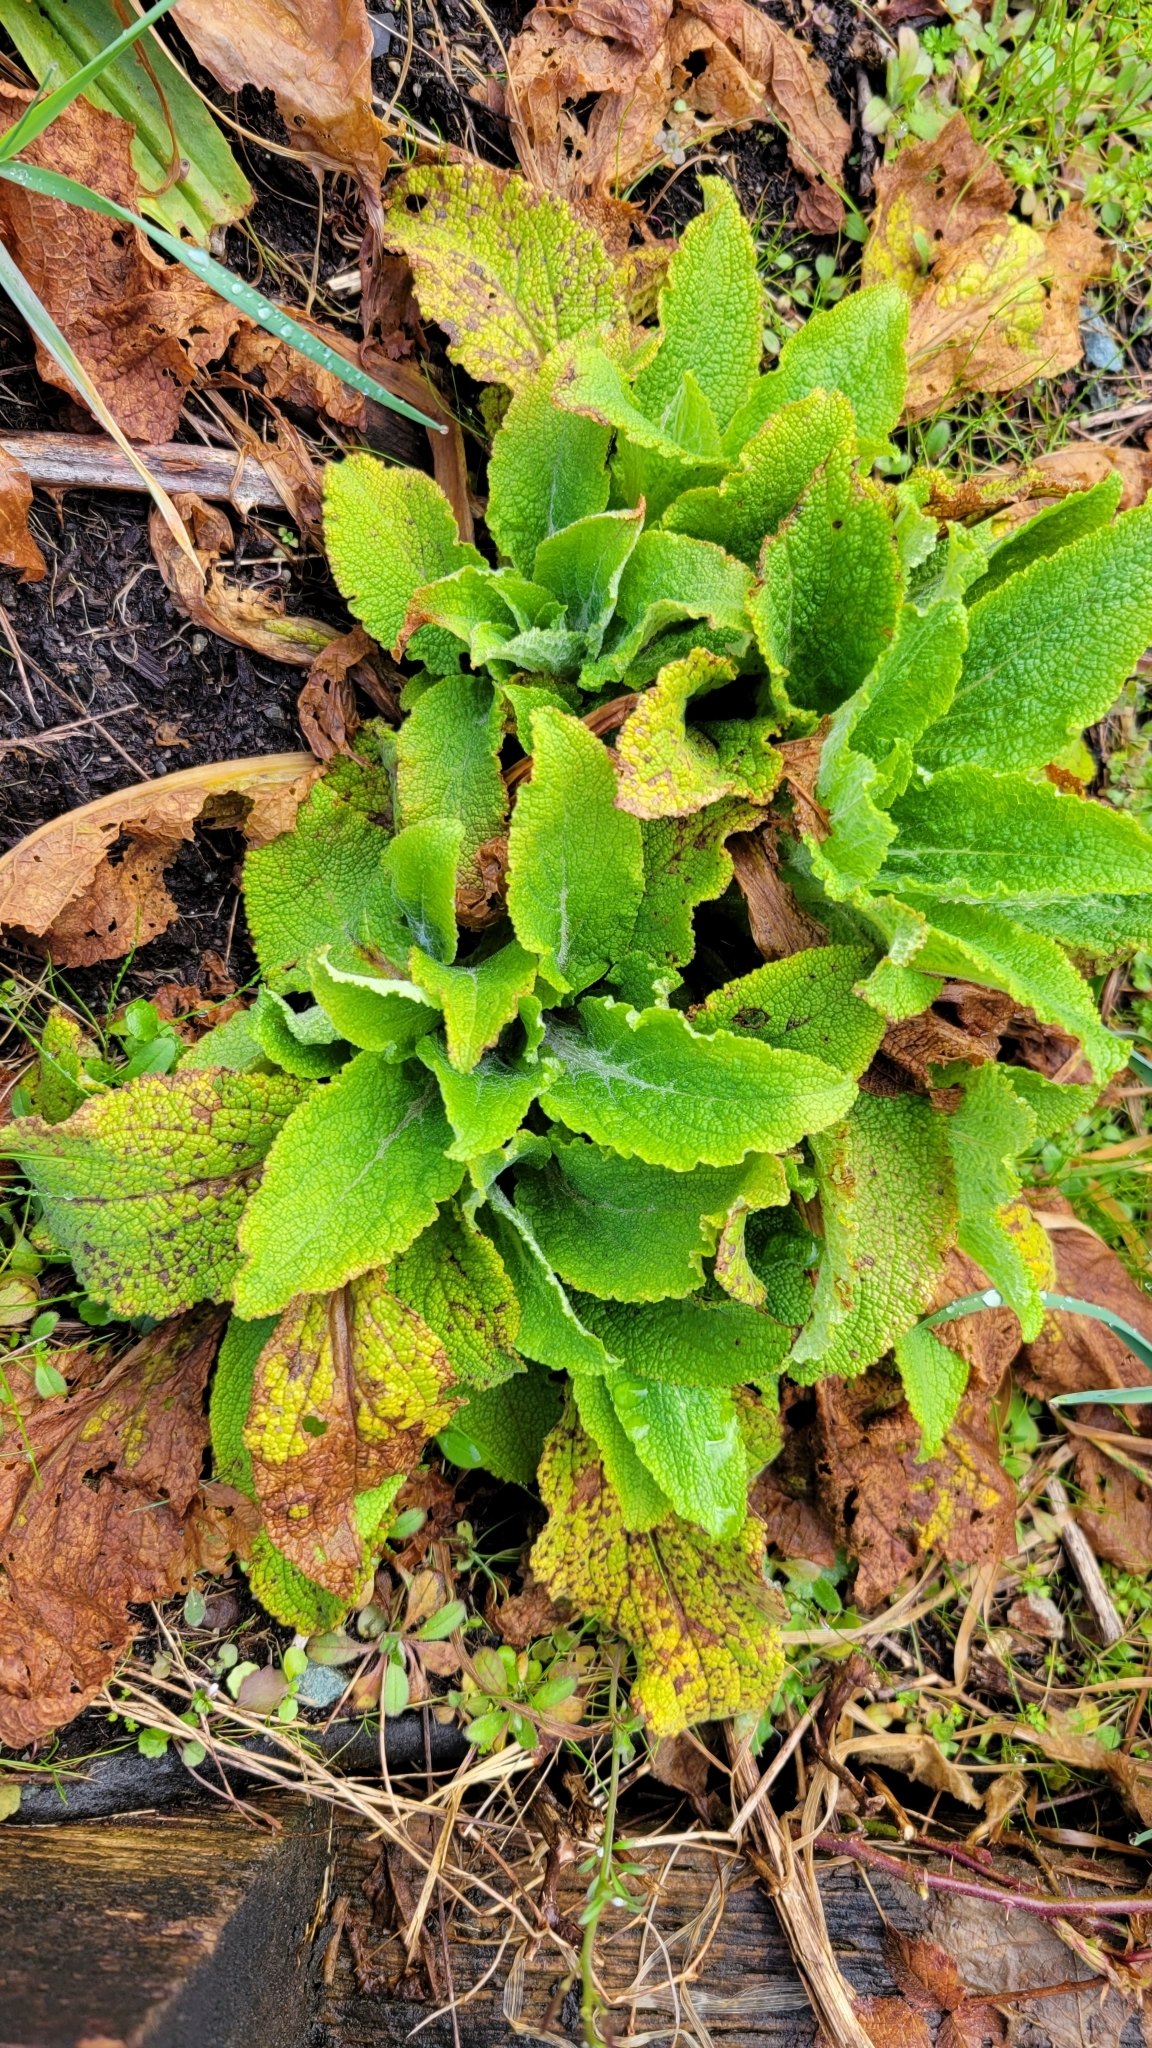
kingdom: Plantae
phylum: Tracheophyta
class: Magnoliopsida
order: Lamiales
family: Plantaginaceae
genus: Digitalis
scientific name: Digitalis purpurea
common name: Foxglove
